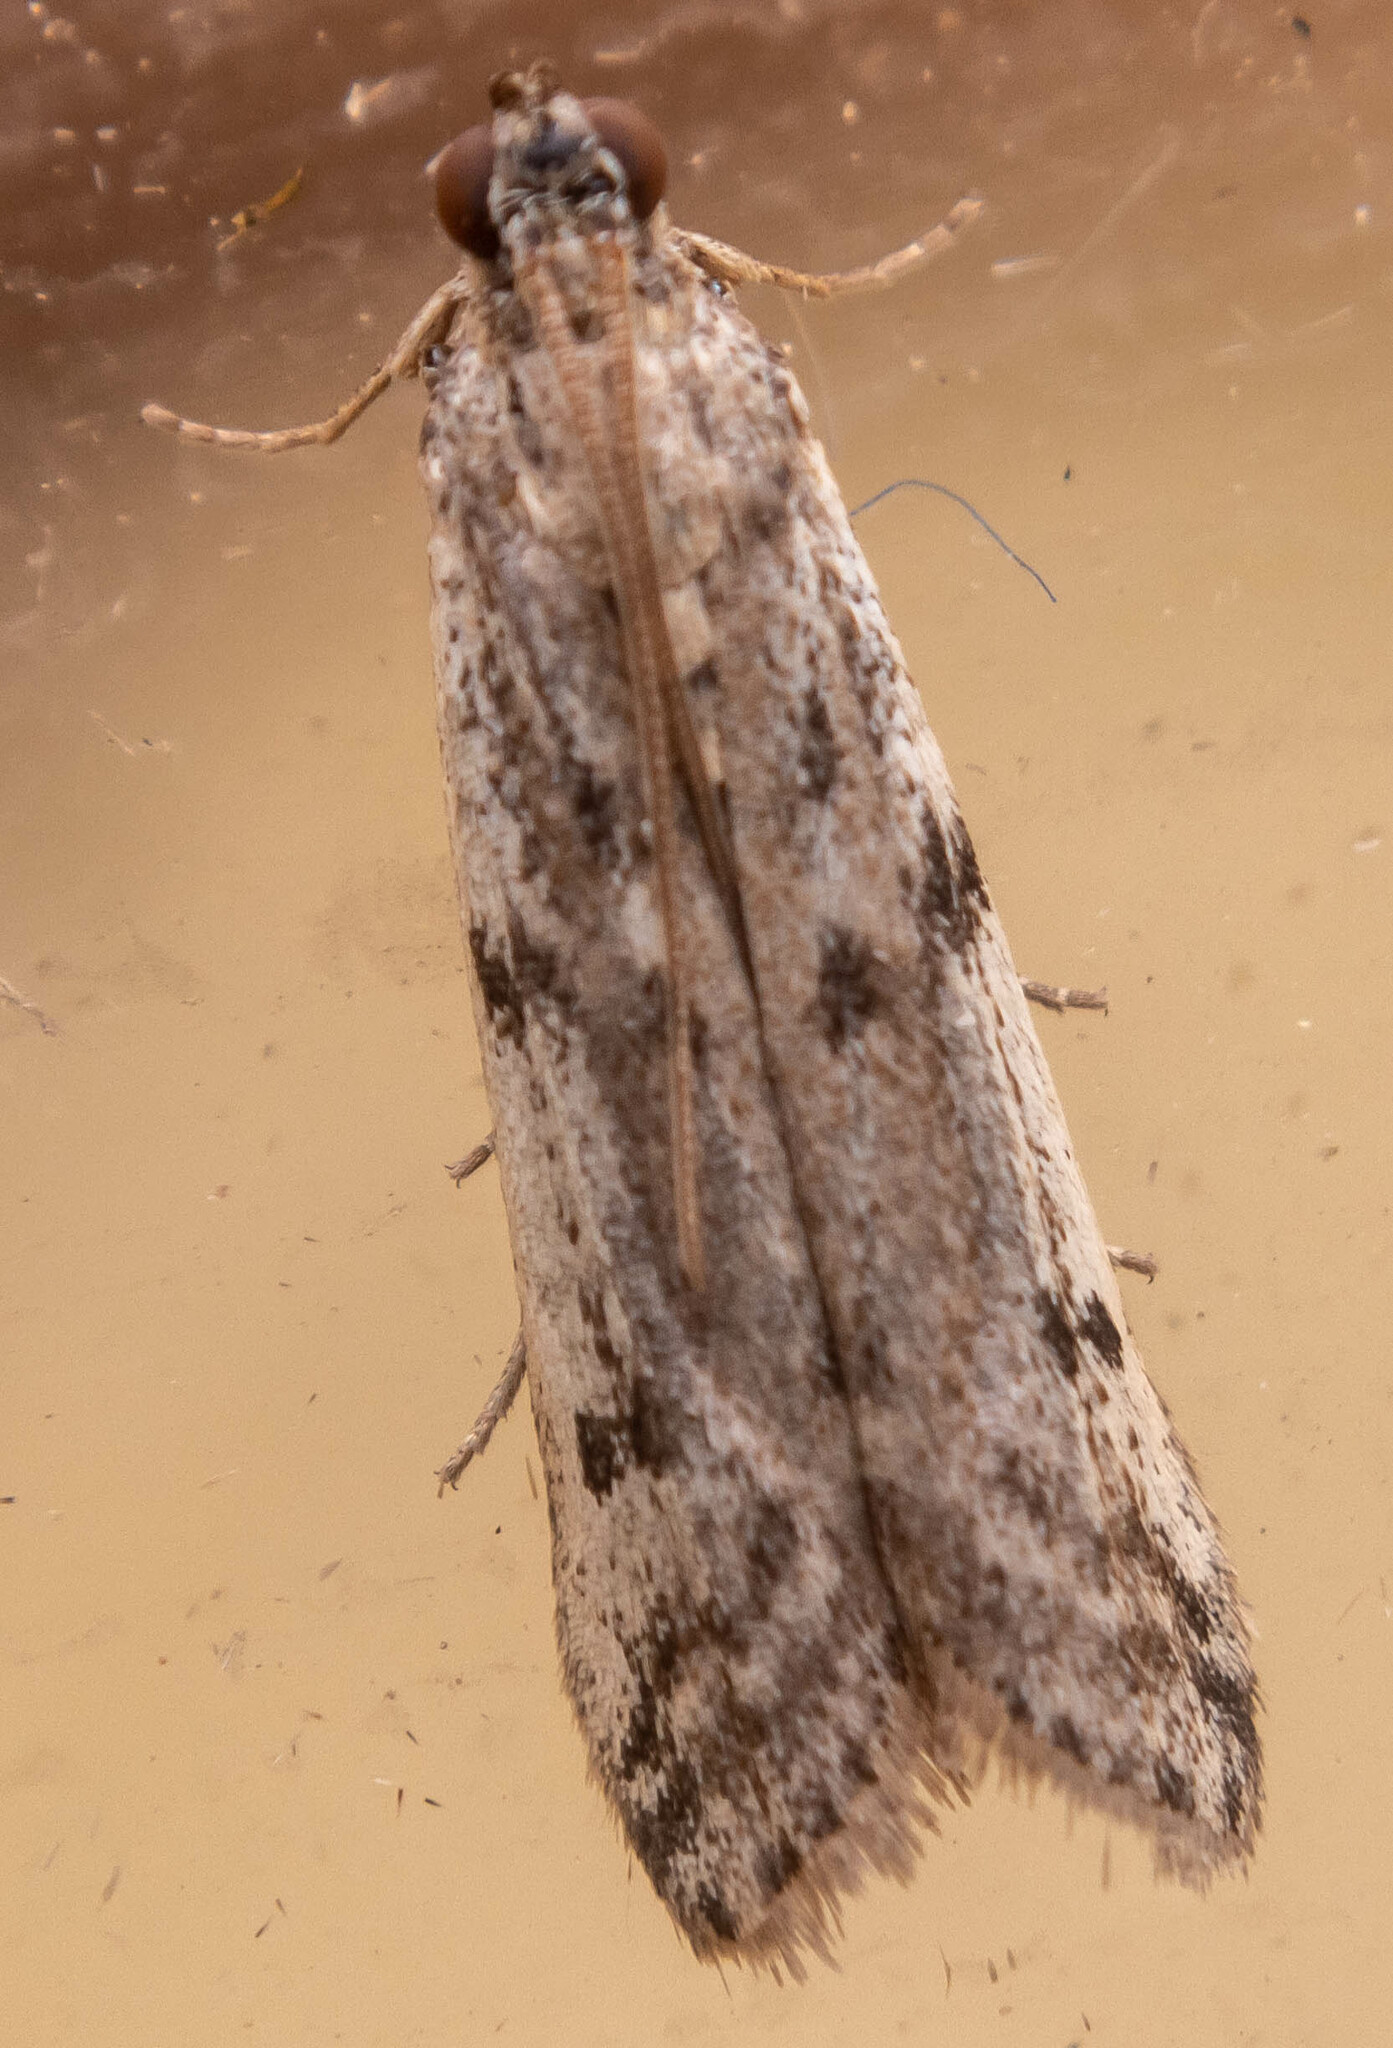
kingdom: Animalia
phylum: Arthropoda
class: Insecta
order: Lepidoptera
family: Pyralidae
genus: Phycitodes
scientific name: Phycitodes binaevella
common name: Ermine knot-horn
